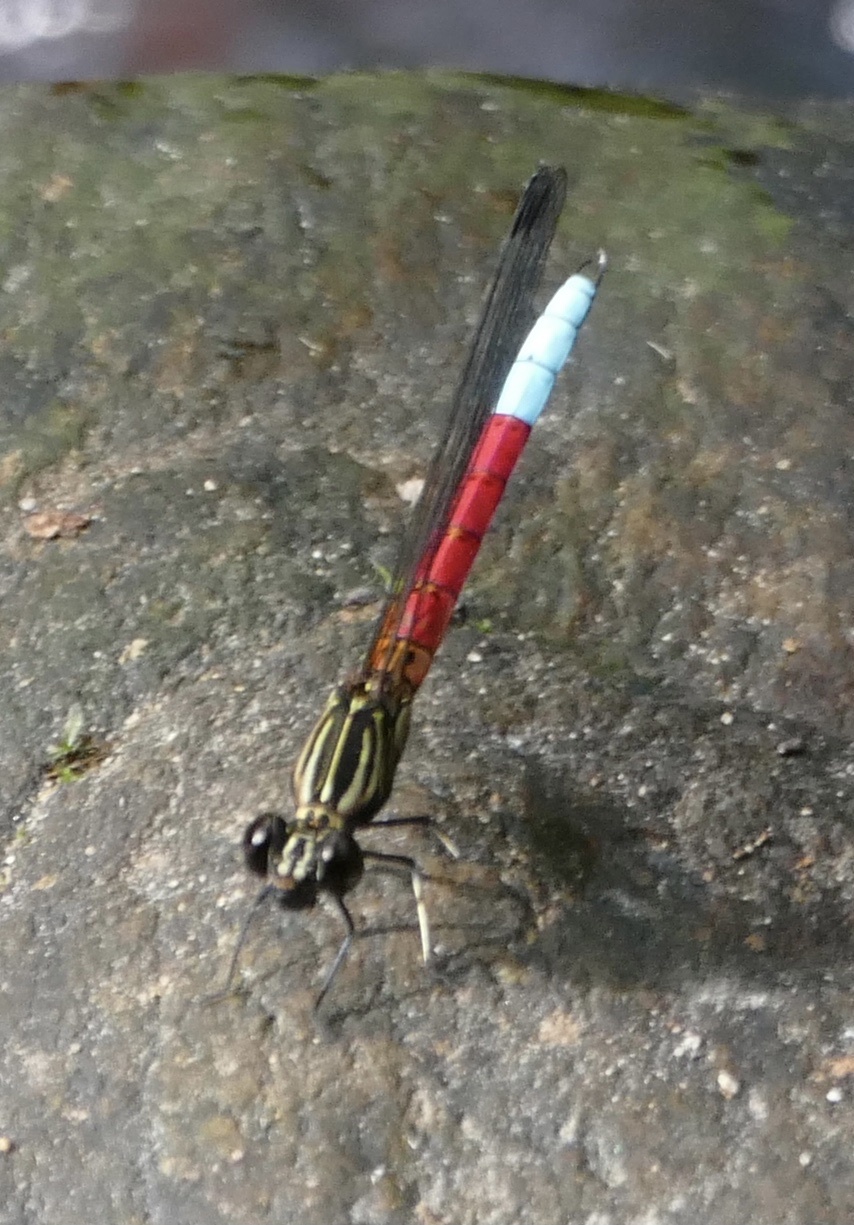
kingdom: Animalia
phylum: Arthropoda
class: Insecta
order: Odonata
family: Chlorocyphidae
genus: Chlorocypha
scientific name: Chlorocypha curta
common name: Blue-tipped jewel
